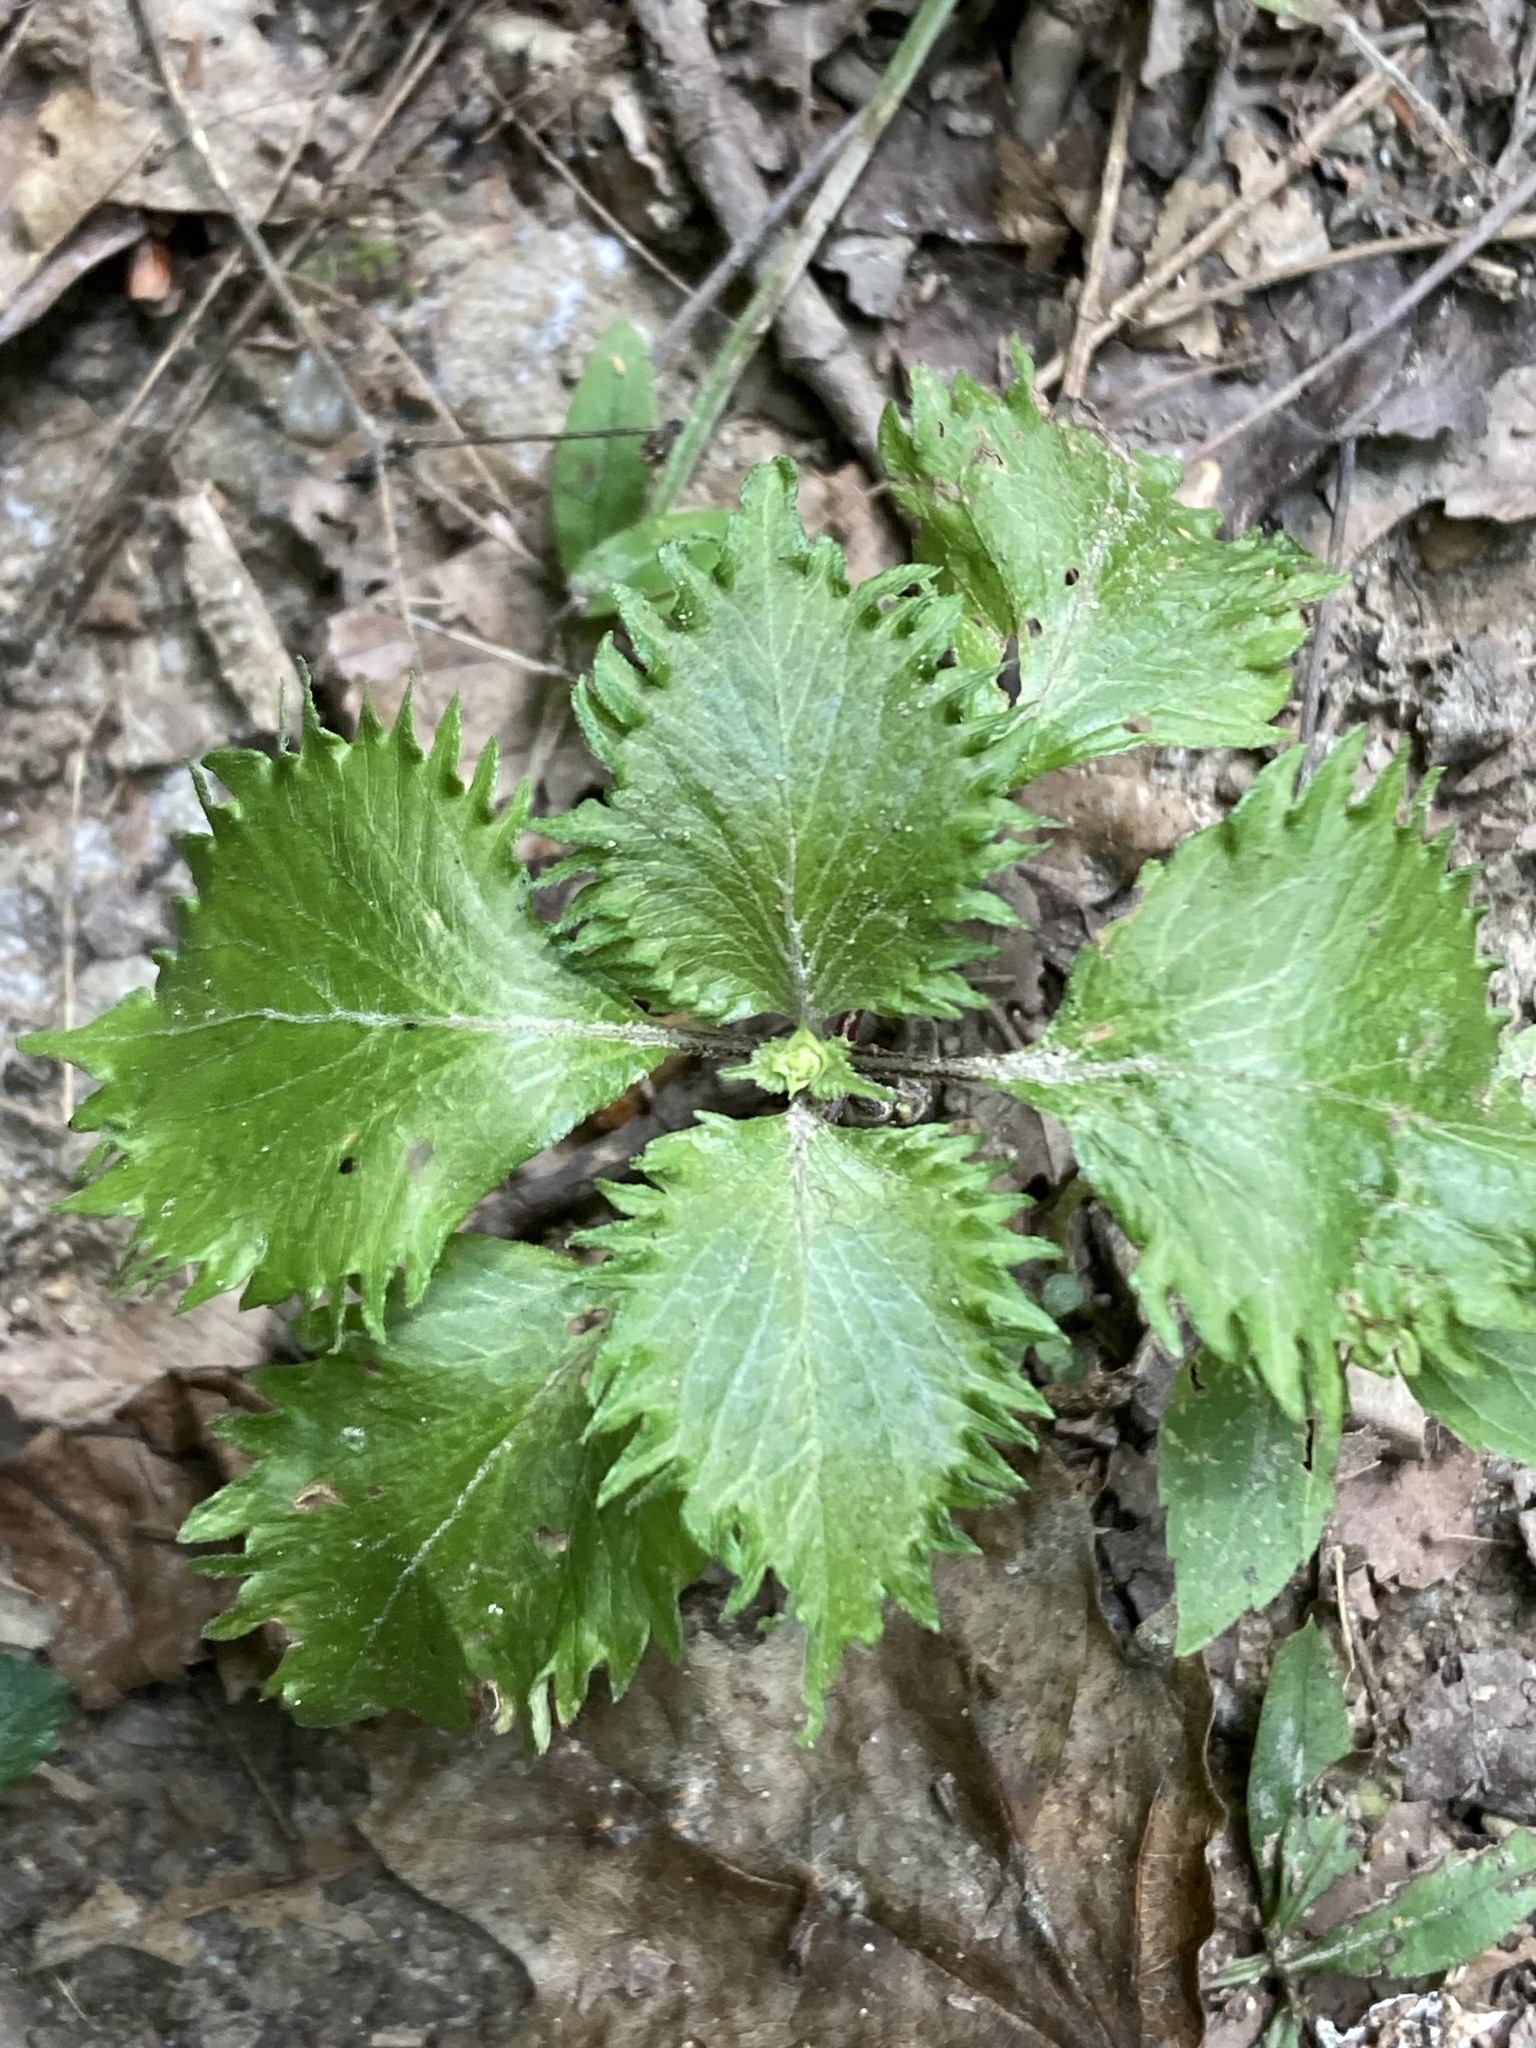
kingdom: Plantae
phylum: Tracheophyta
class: Magnoliopsida
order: Lamiales
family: Lamiaceae
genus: Perilla
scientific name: Perilla frutescens
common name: Perilla
